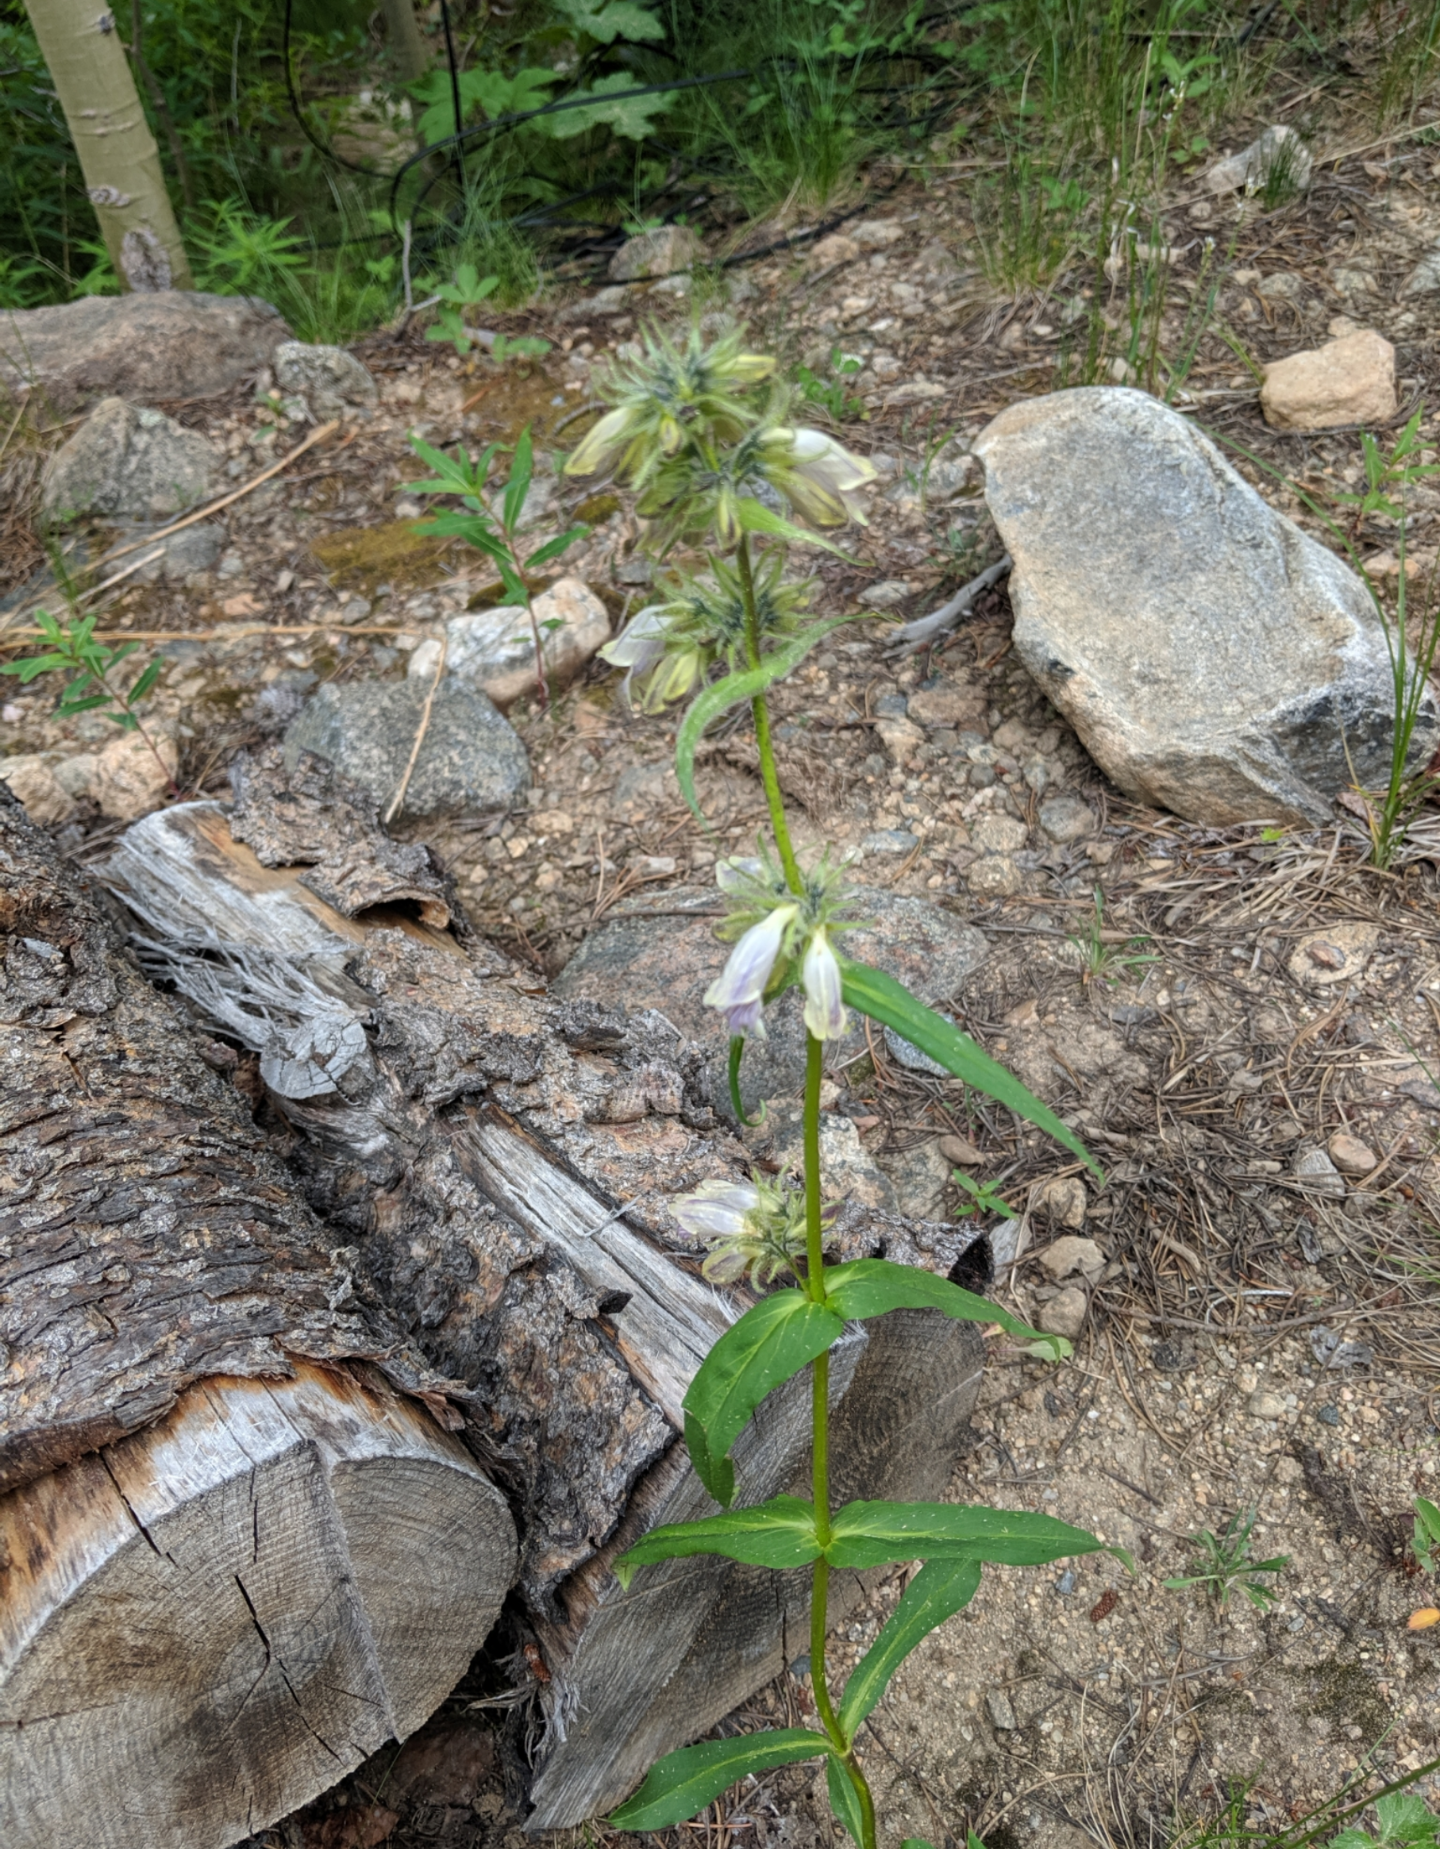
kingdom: Plantae
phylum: Tracheophyta
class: Magnoliopsida
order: Lamiales
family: Plantaginaceae
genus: Penstemon
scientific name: Penstemon whippleanus
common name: Whipple's penstemon
